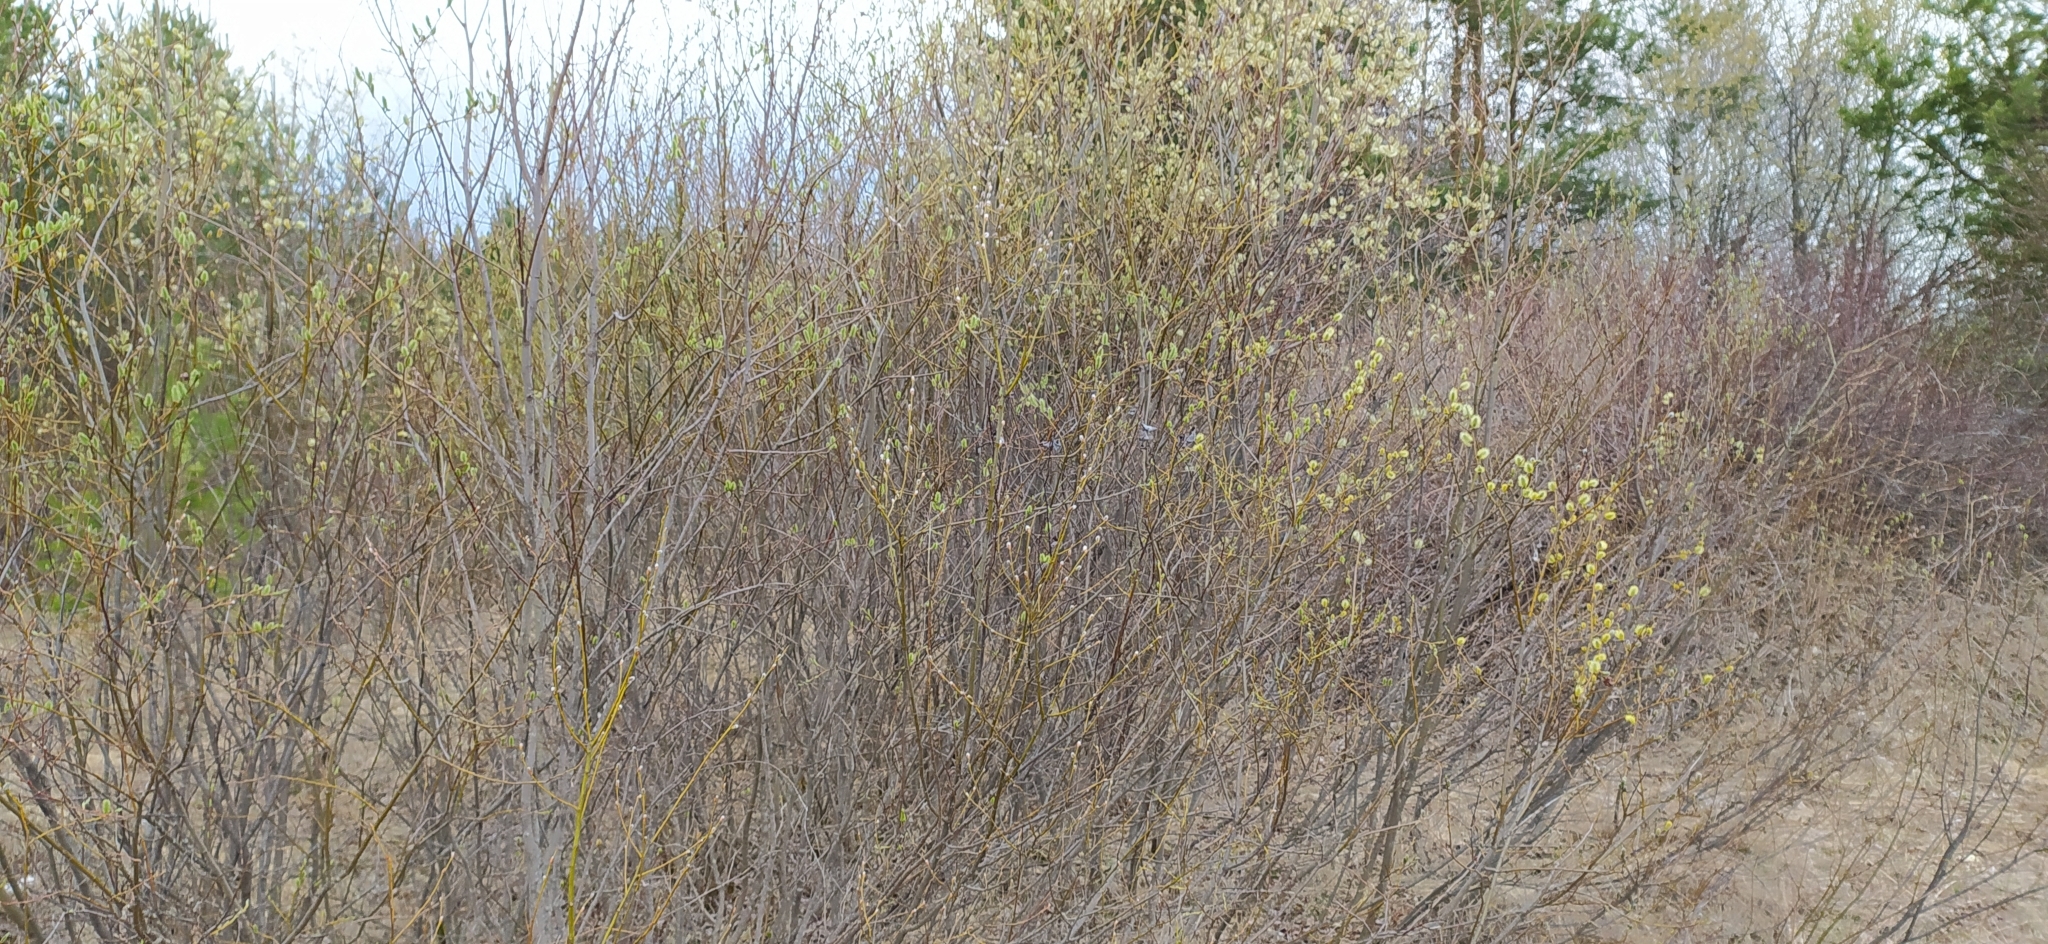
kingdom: Plantae
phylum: Tracheophyta
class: Magnoliopsida
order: Malpighiales
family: Salicaceae
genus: Salix
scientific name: Salix caprea
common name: Goat willow
